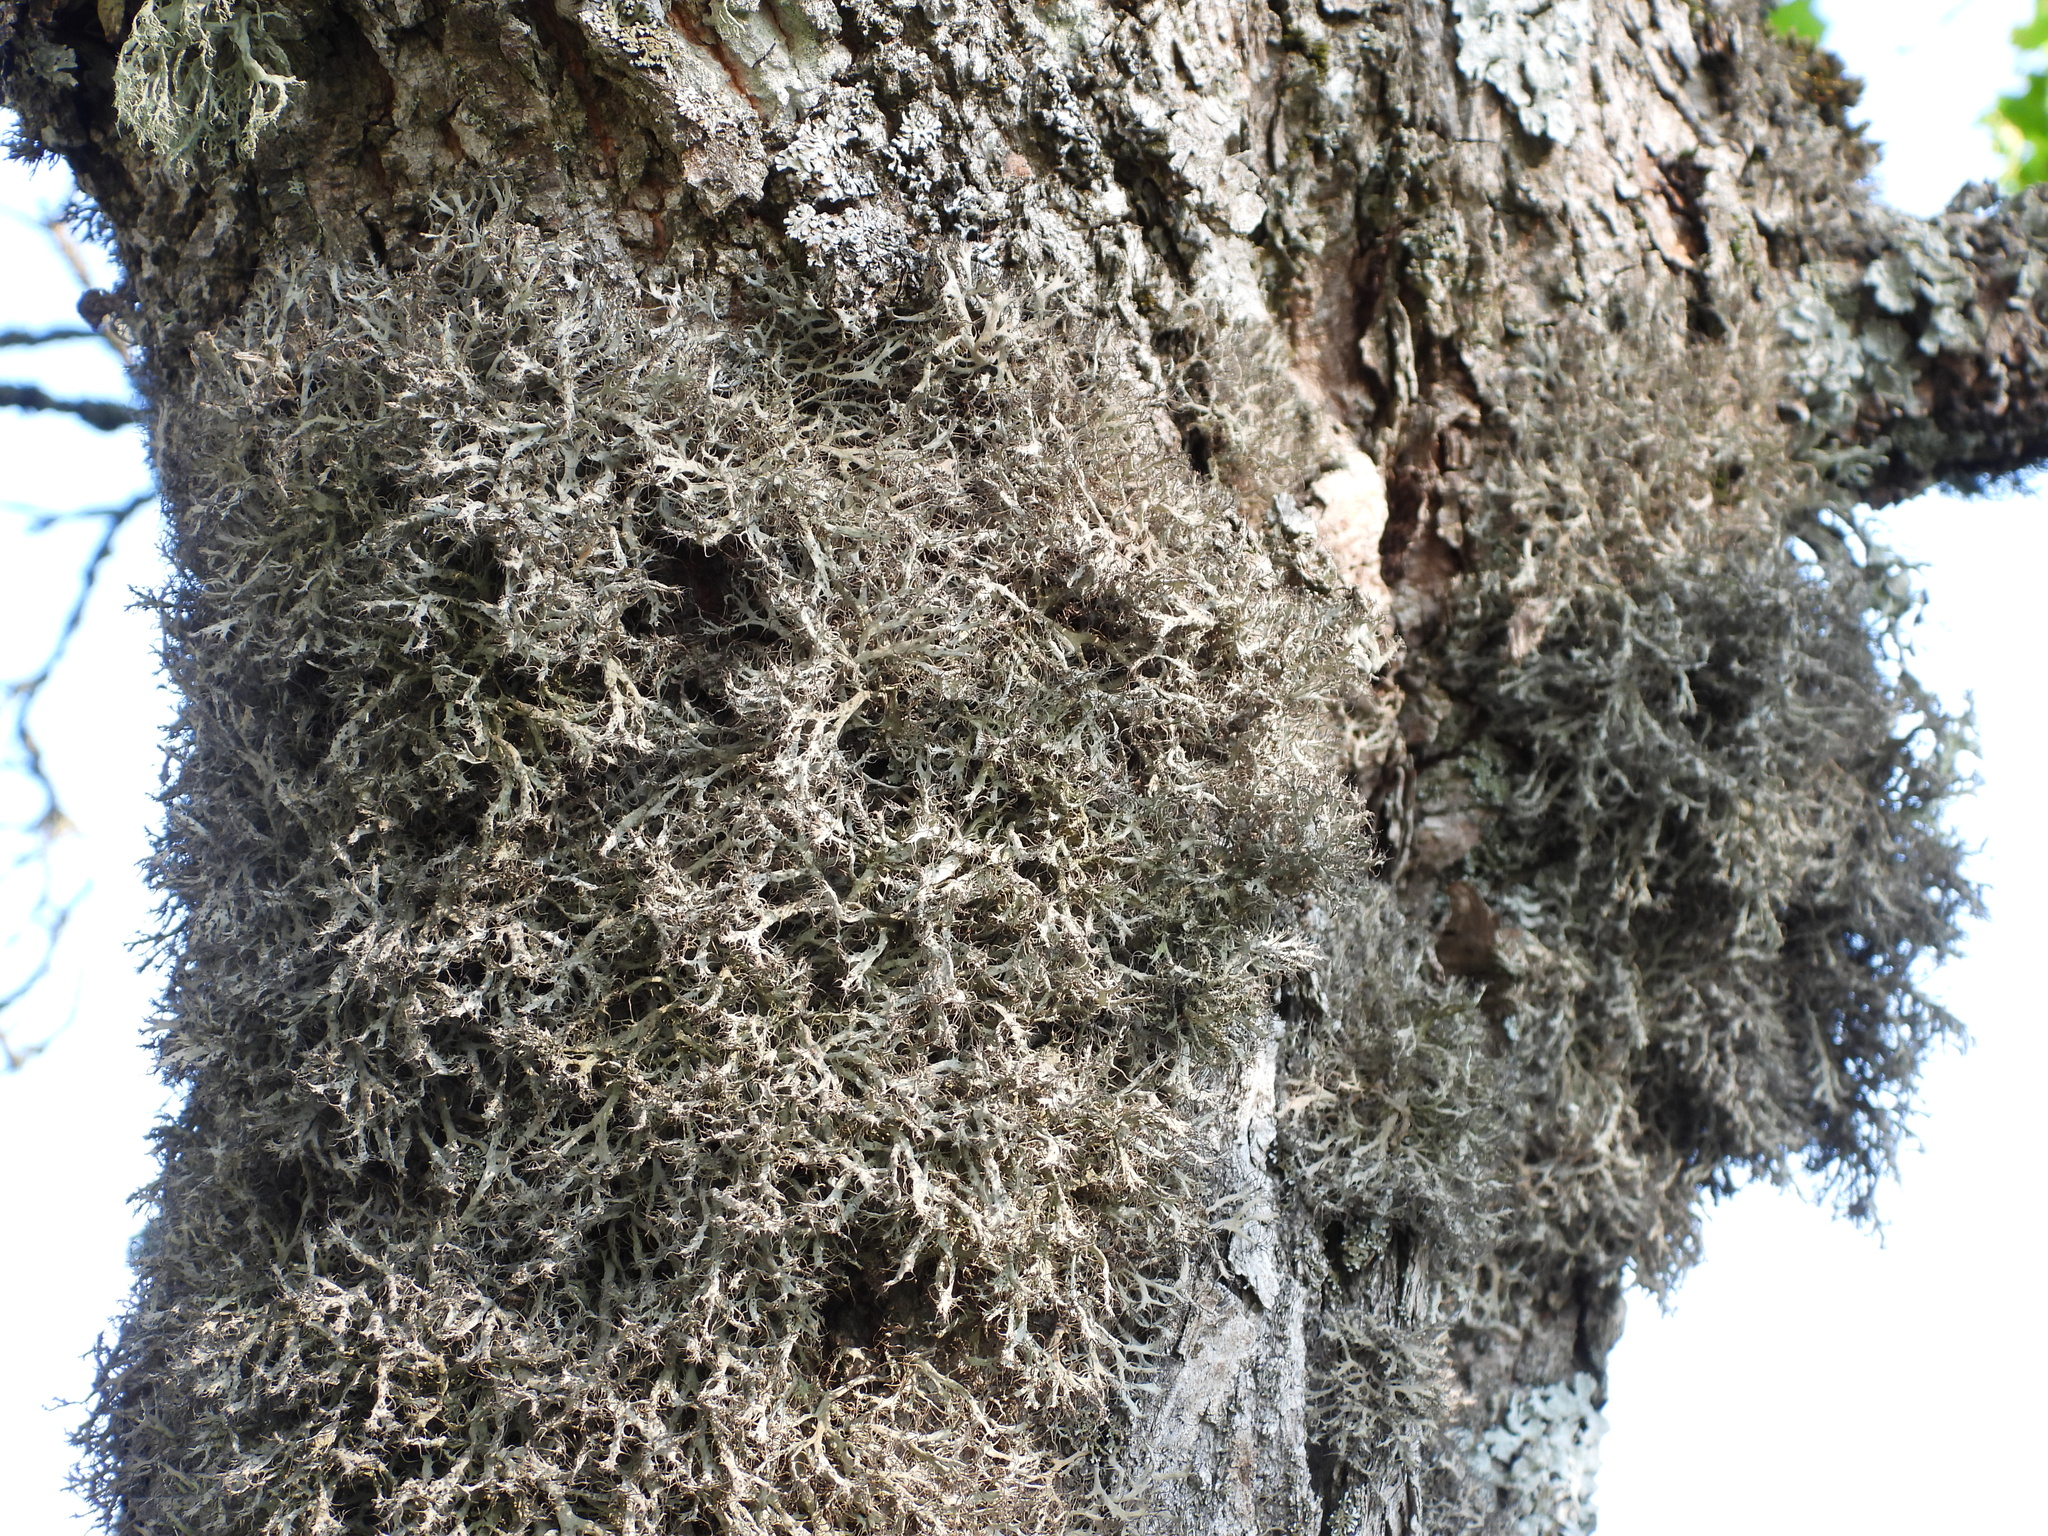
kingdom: Fungi
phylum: Ascomycota
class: Lecanoromycetes
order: Caliciales
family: Physciaceae
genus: Anaptychia
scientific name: Anaptychia ciliaris
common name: Great ciliated lichen
